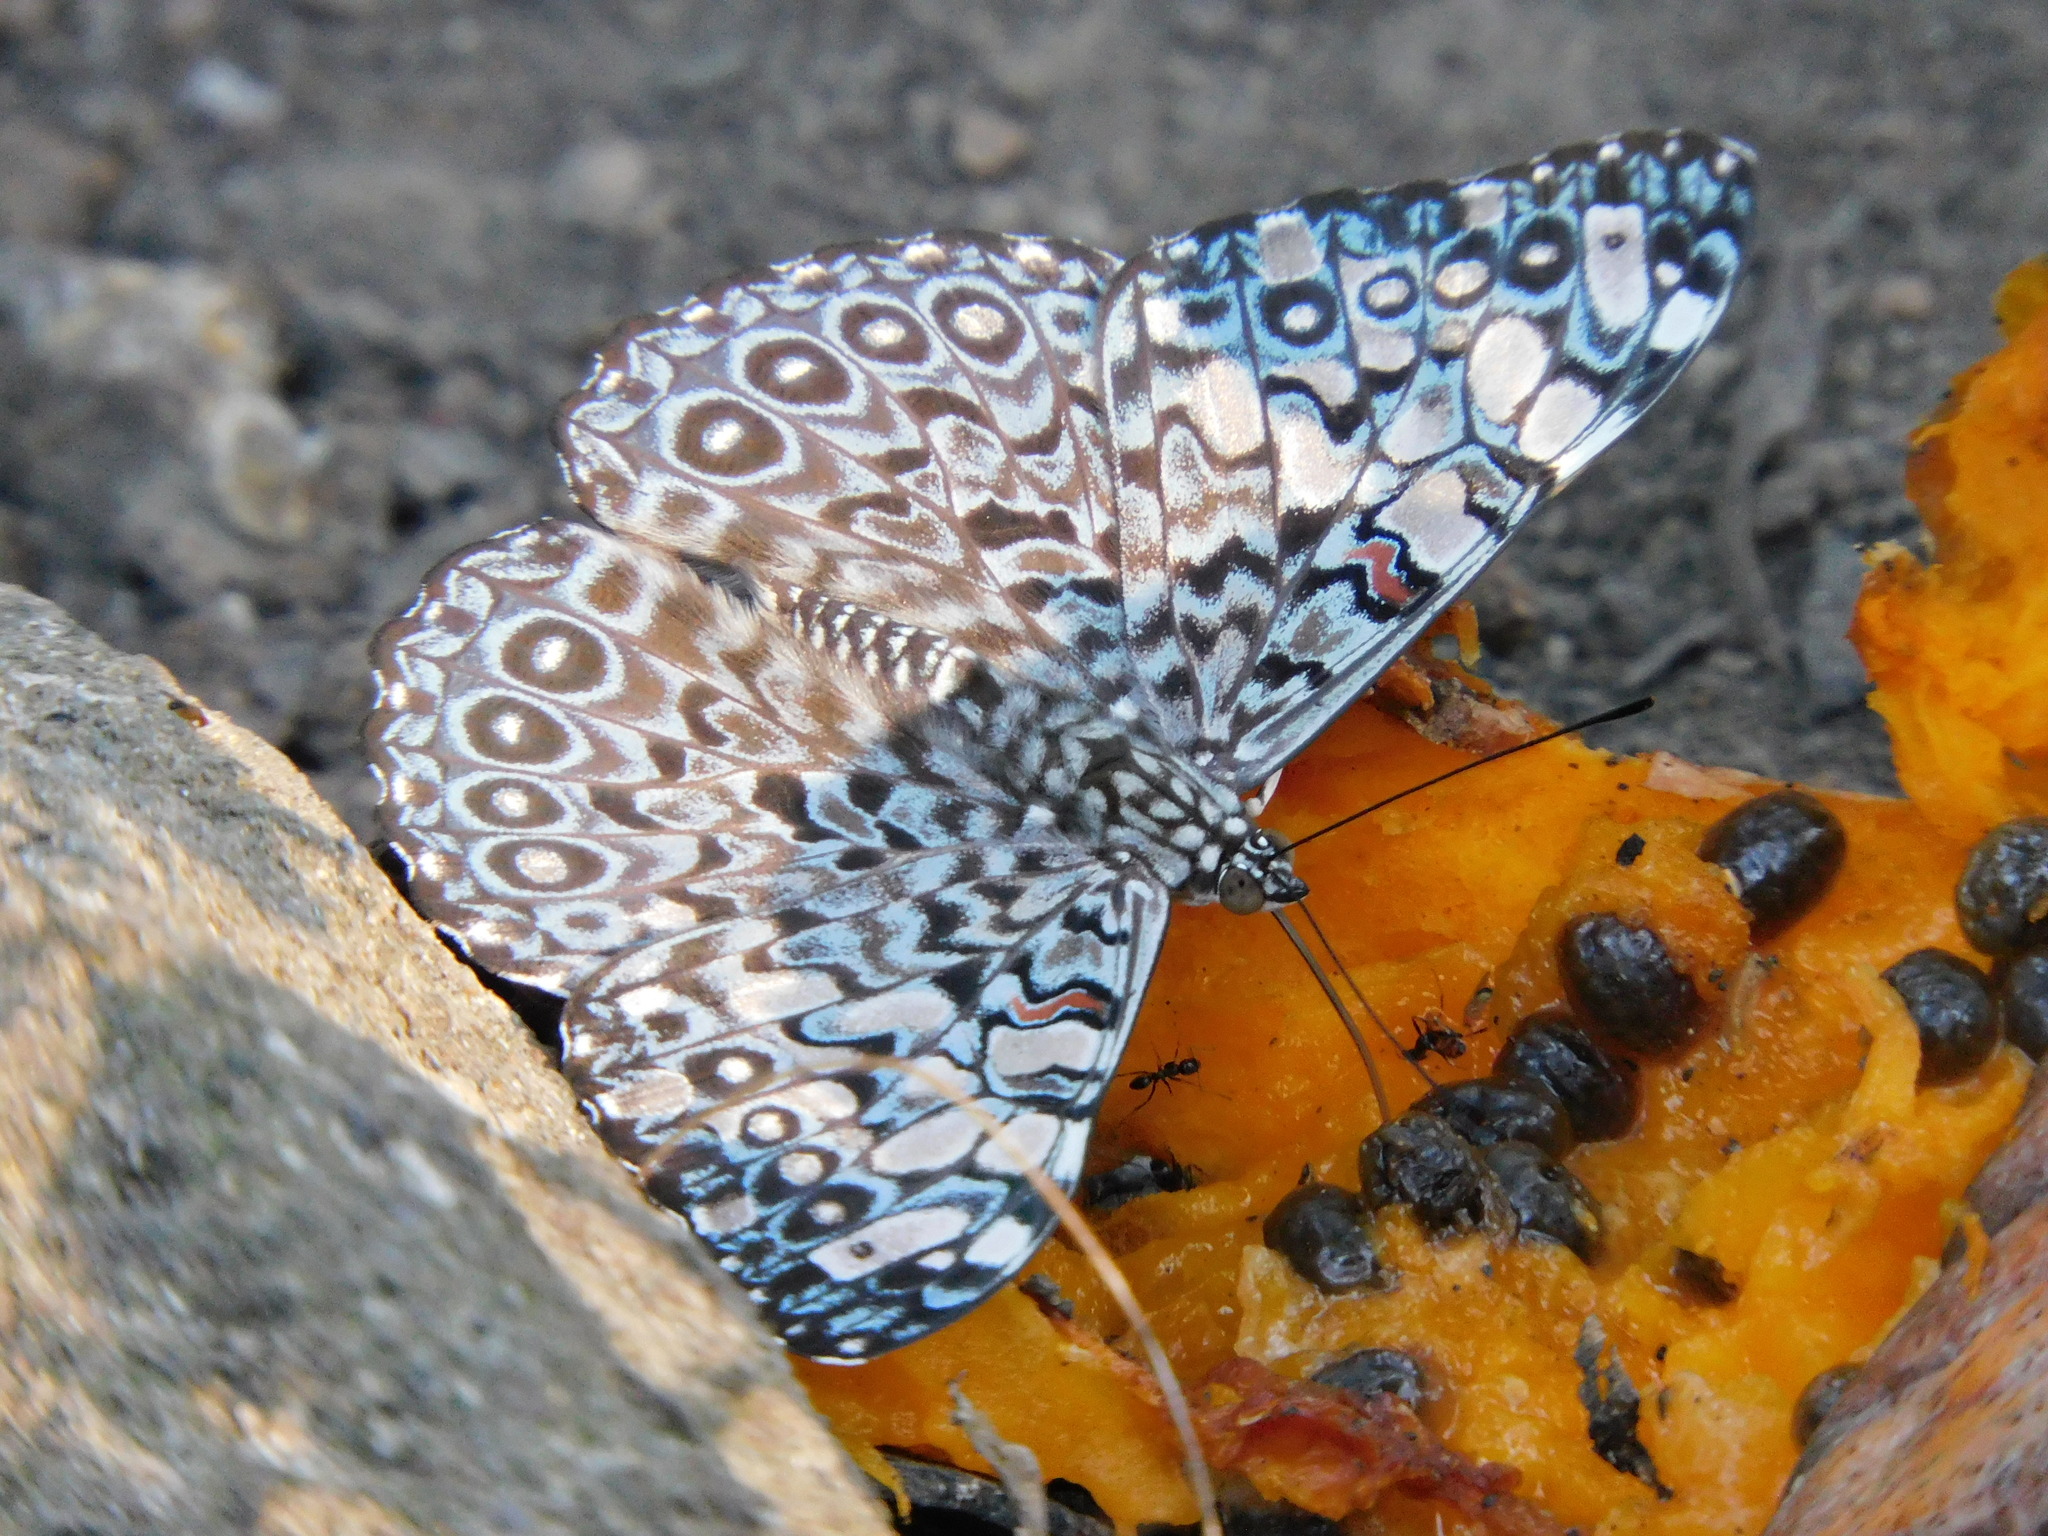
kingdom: Animalia
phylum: Arthropoda
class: Insecta
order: Lepidoptera
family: Nymphalidae
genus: Hamadryas
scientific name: Hamadryas feronia
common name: Variable cracker
